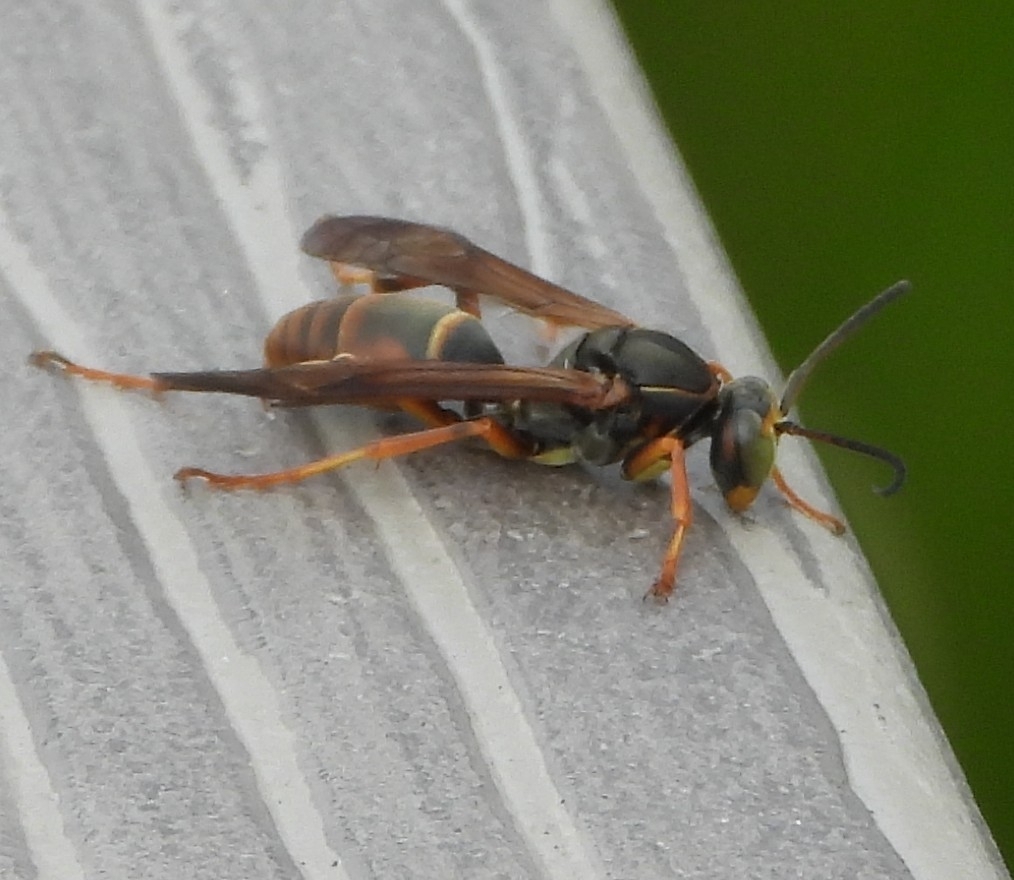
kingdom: Animalia
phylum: Arthropoda
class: Insecta
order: Hymenoptera
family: Eumenidae
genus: Polistes
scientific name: Polistes fuscatus
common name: Dark paper wasp
